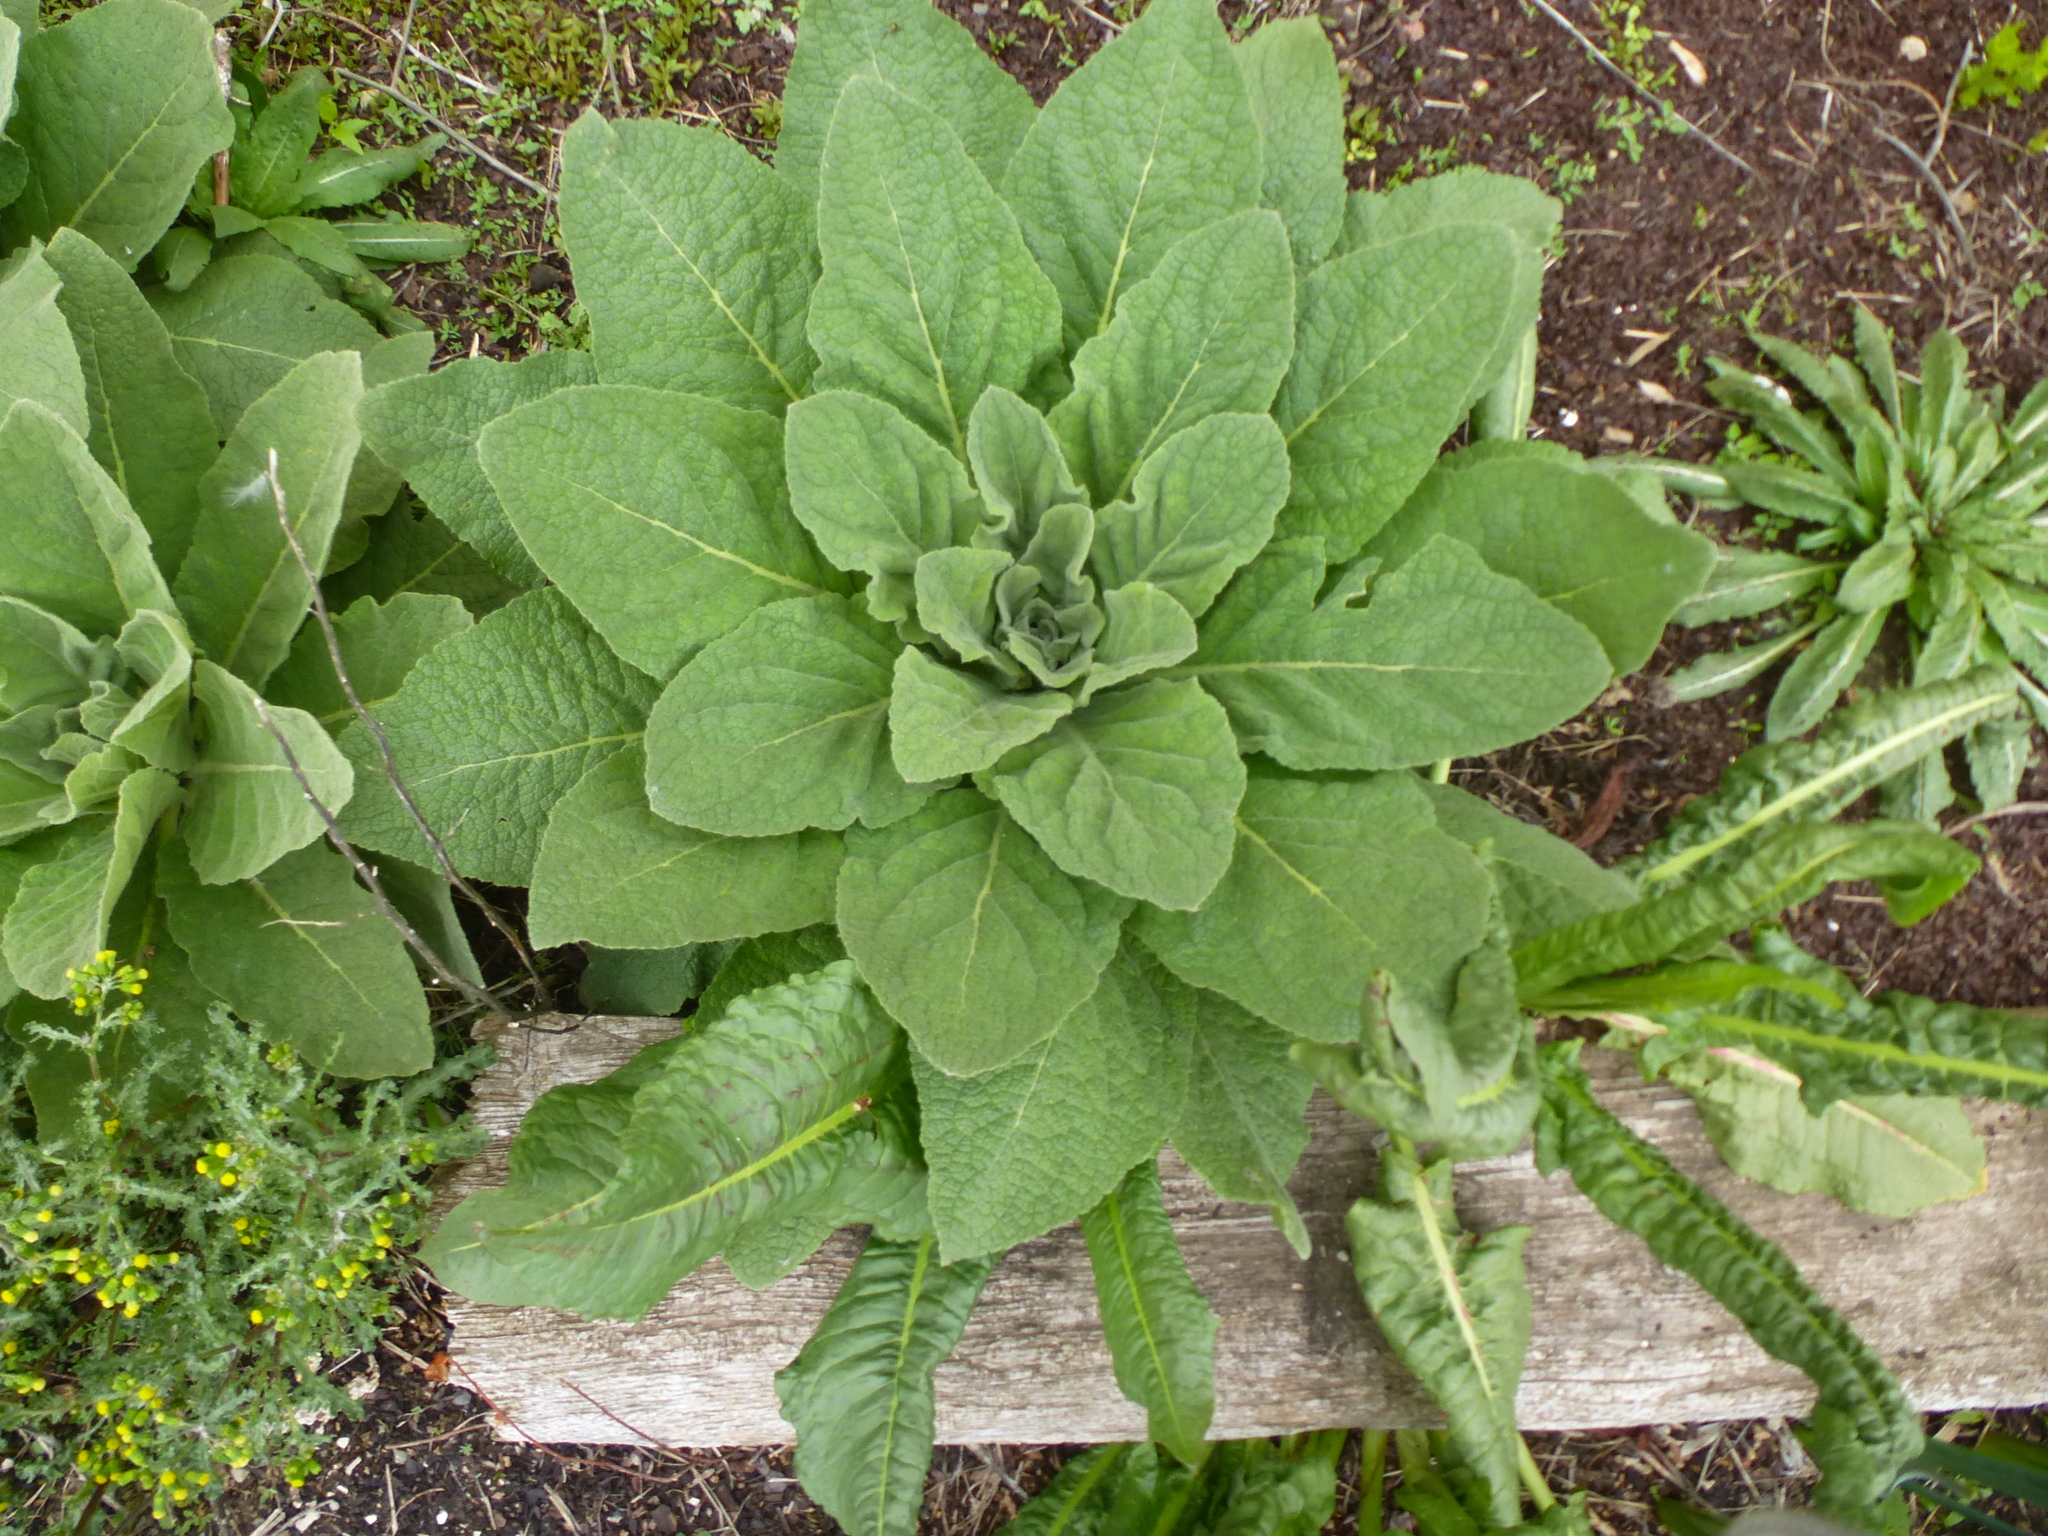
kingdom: Plantae
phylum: Tracheophyta
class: Magnoliopsida
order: Lamiales
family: Scrophulariaceae
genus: Verbascum
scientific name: Verbascum thapsus
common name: Common mullein
